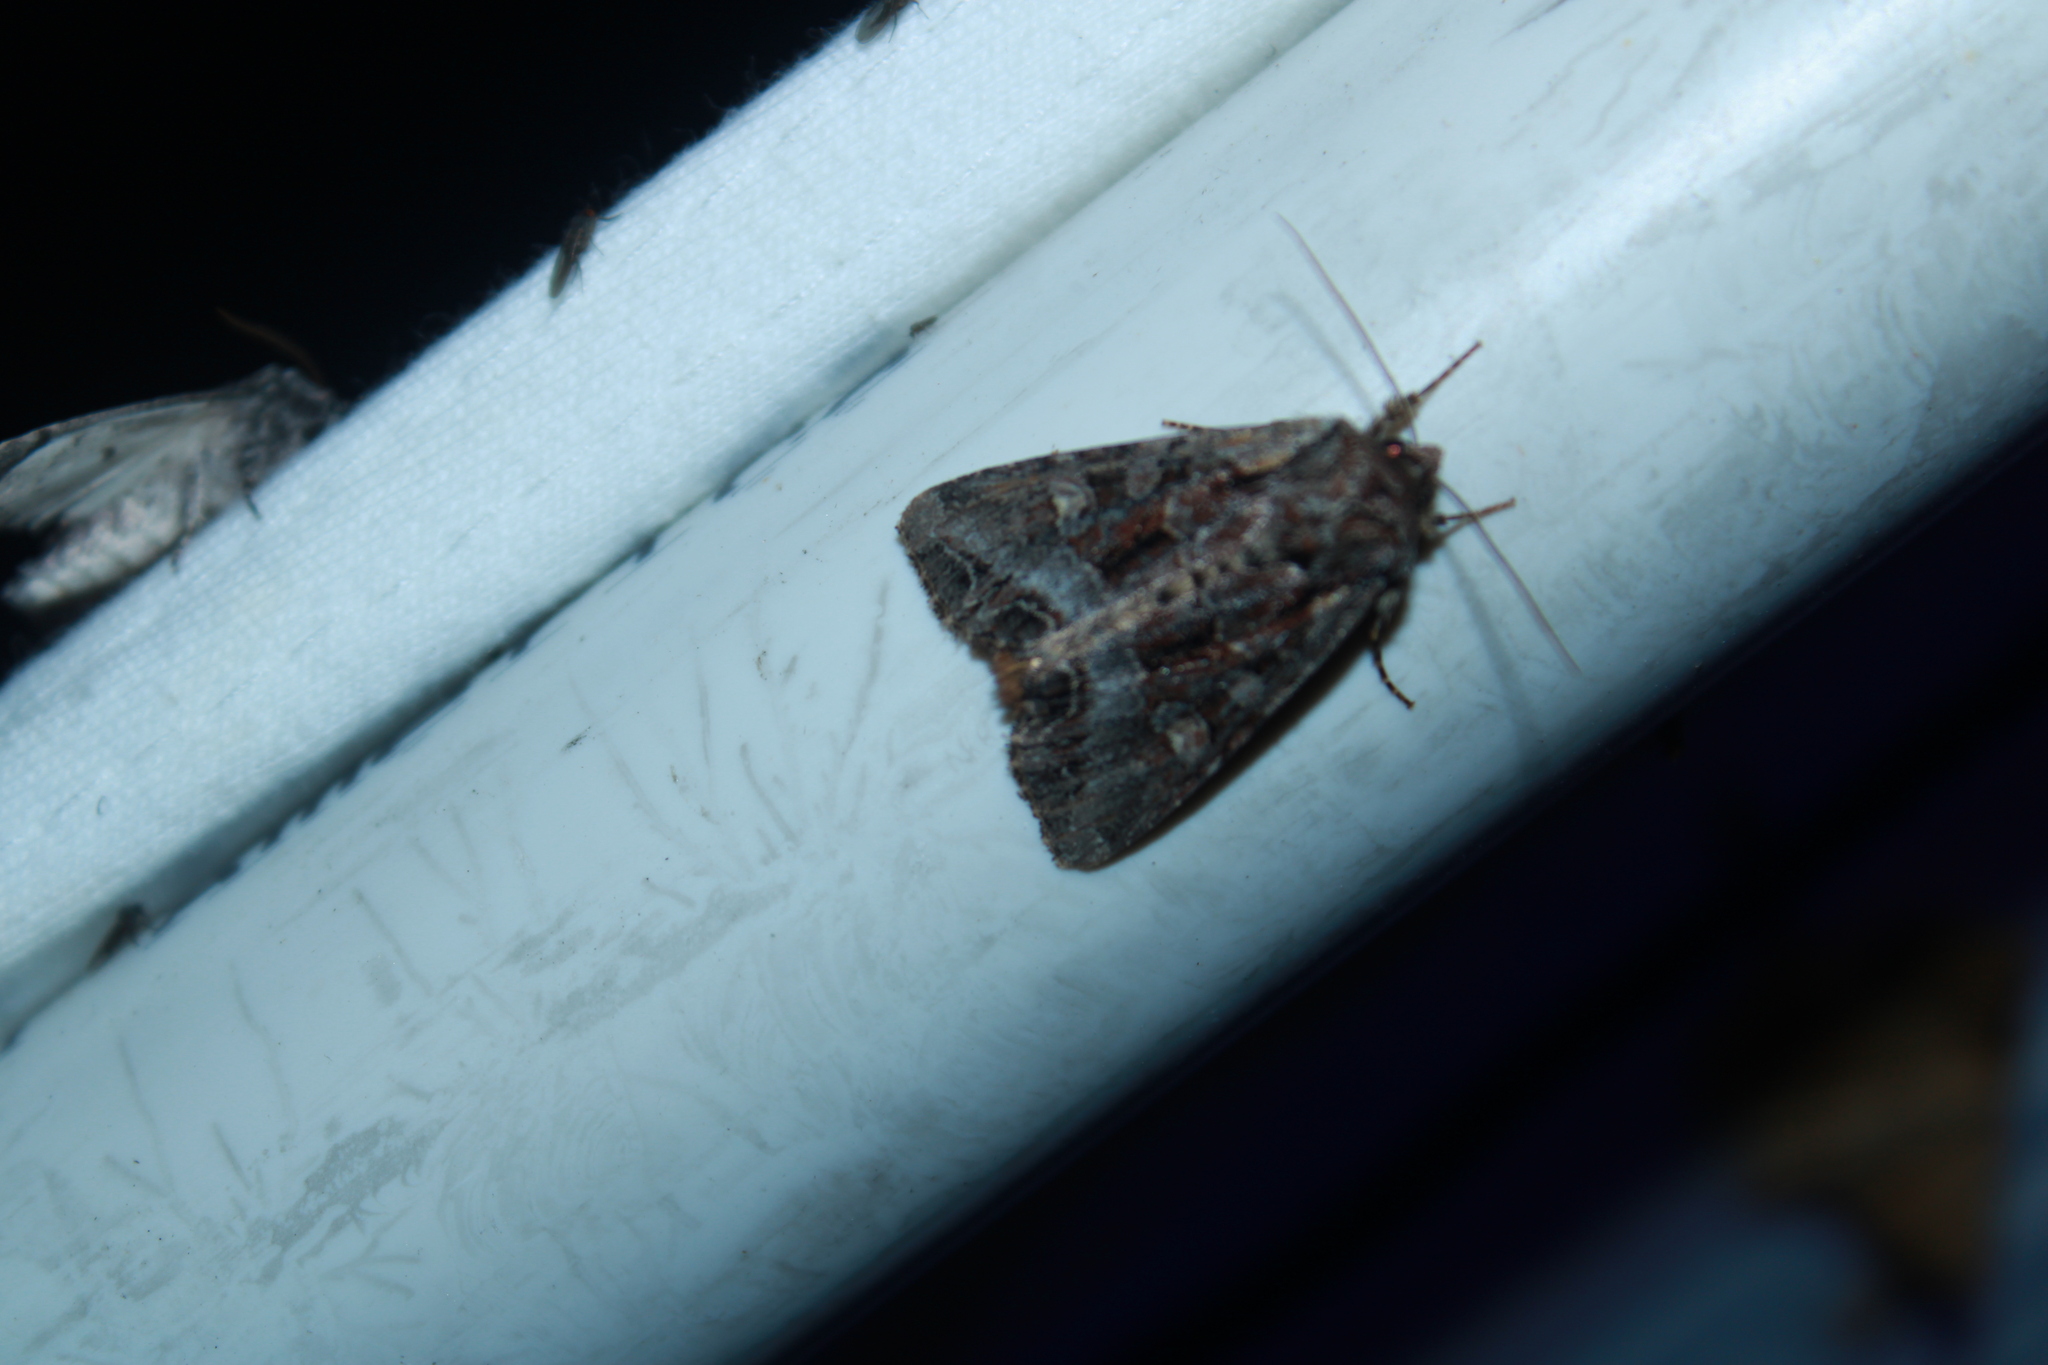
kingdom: Animalia
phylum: Arthropoda
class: Insecta
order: Lepidoptera
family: Noctuidae
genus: Lacanobia
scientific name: Lacanobia grandis
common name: Grand arches moth
